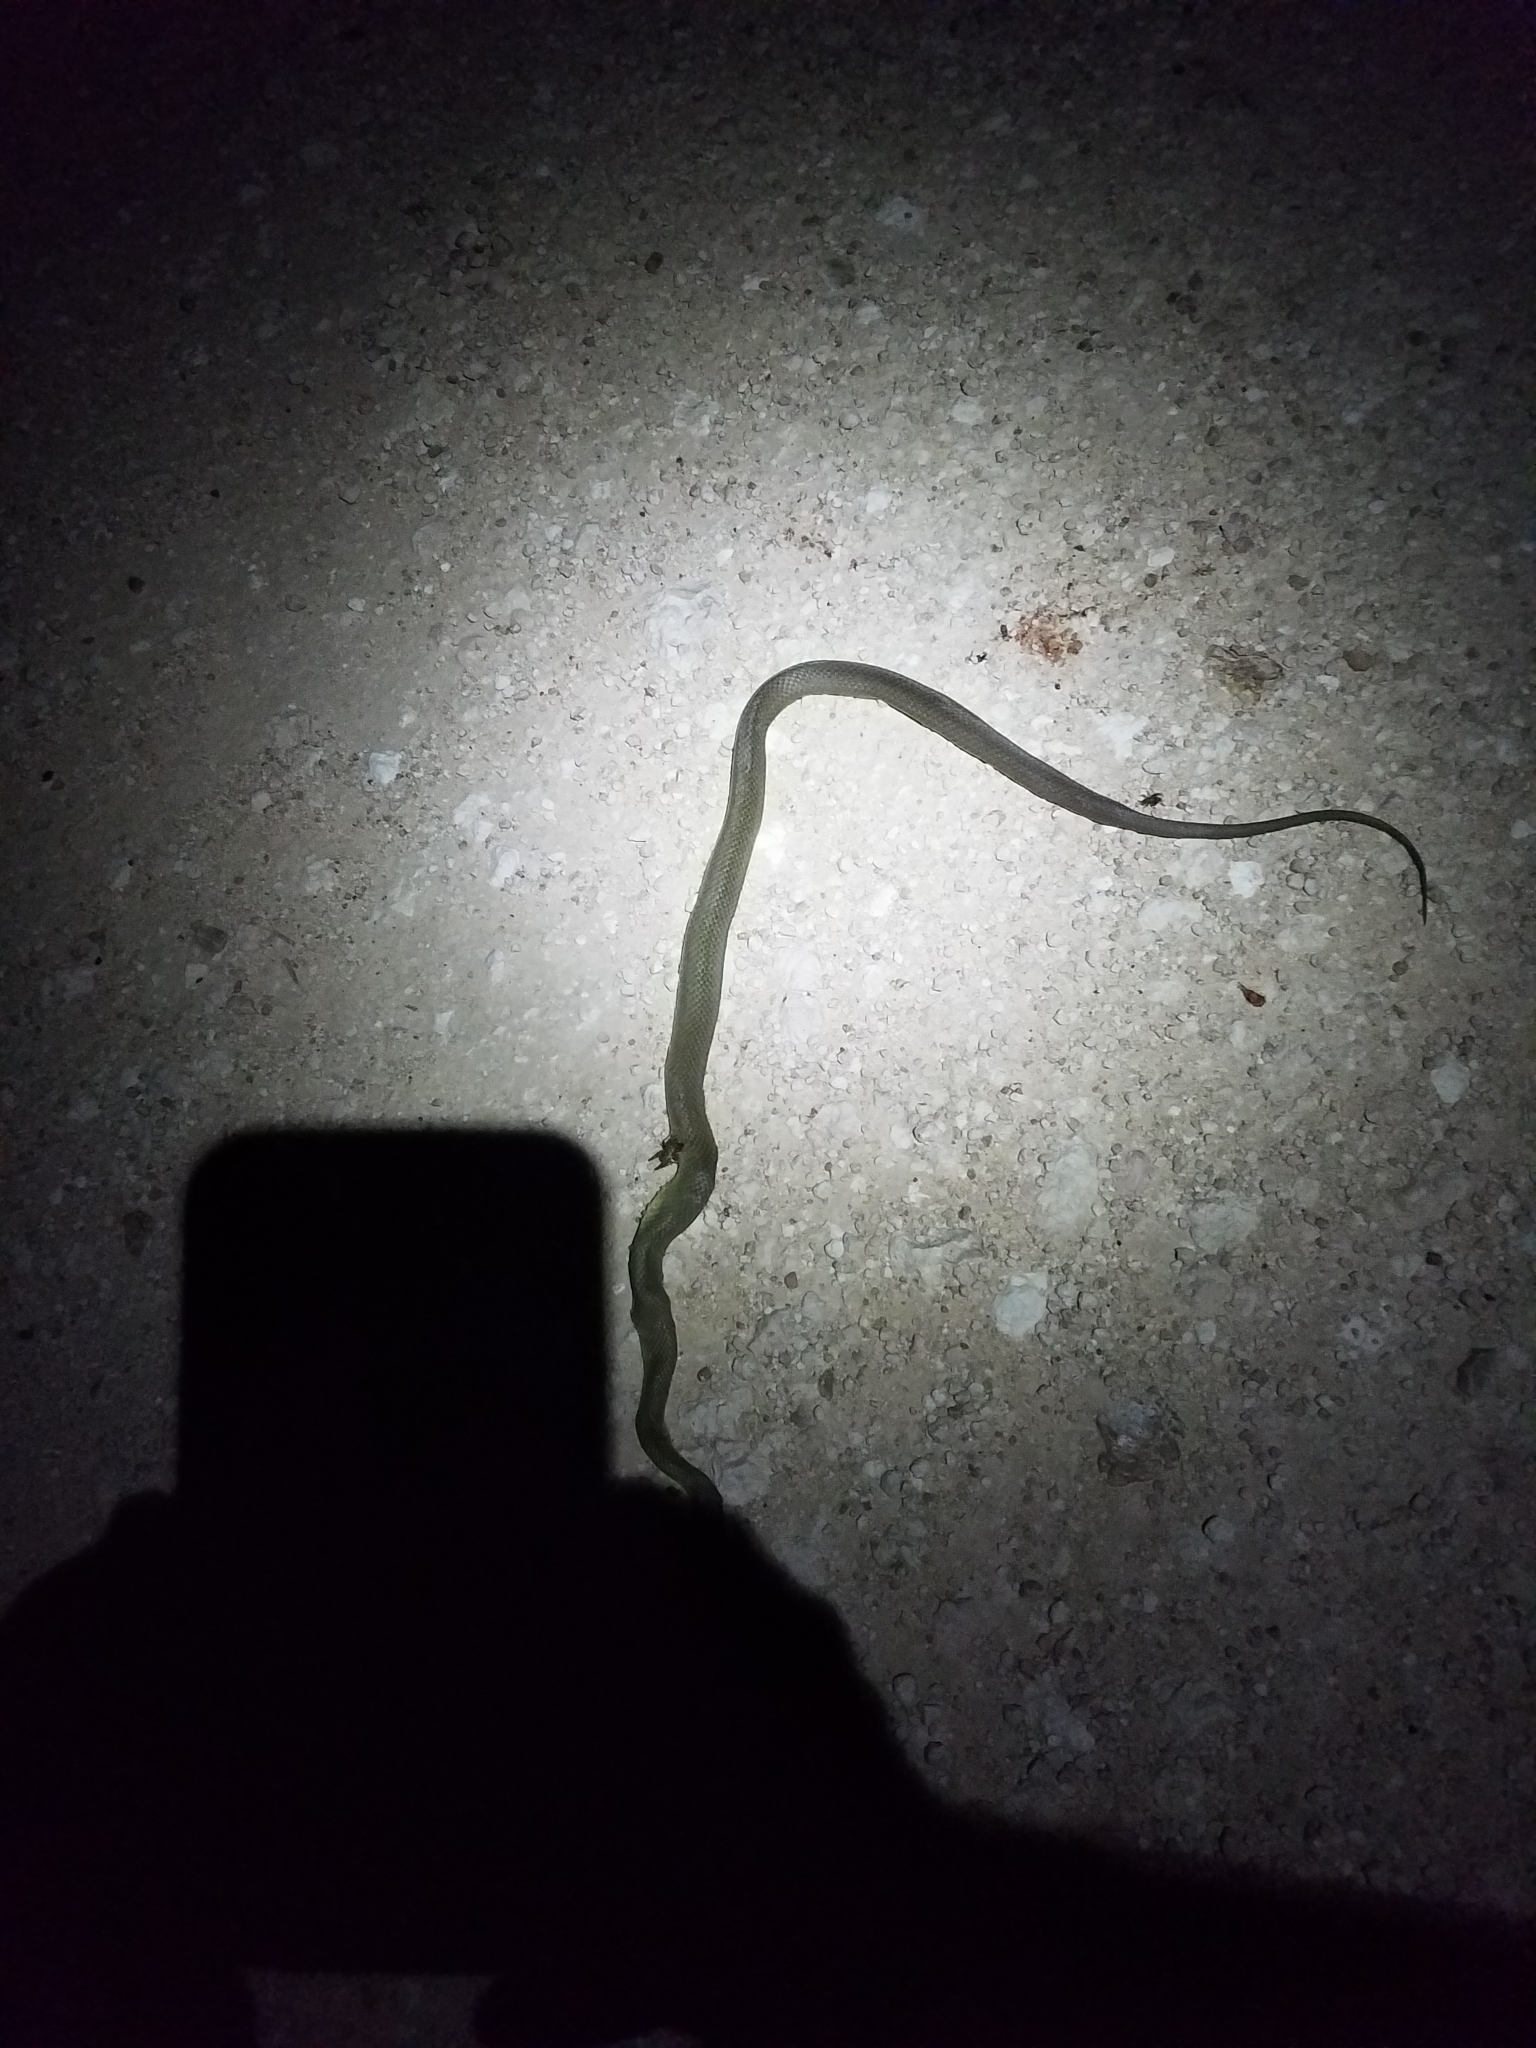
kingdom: Animalia
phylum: Chordata
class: Squamata
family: Colubridae
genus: Coluber
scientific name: Coluber constrictor
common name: Eastern racer
